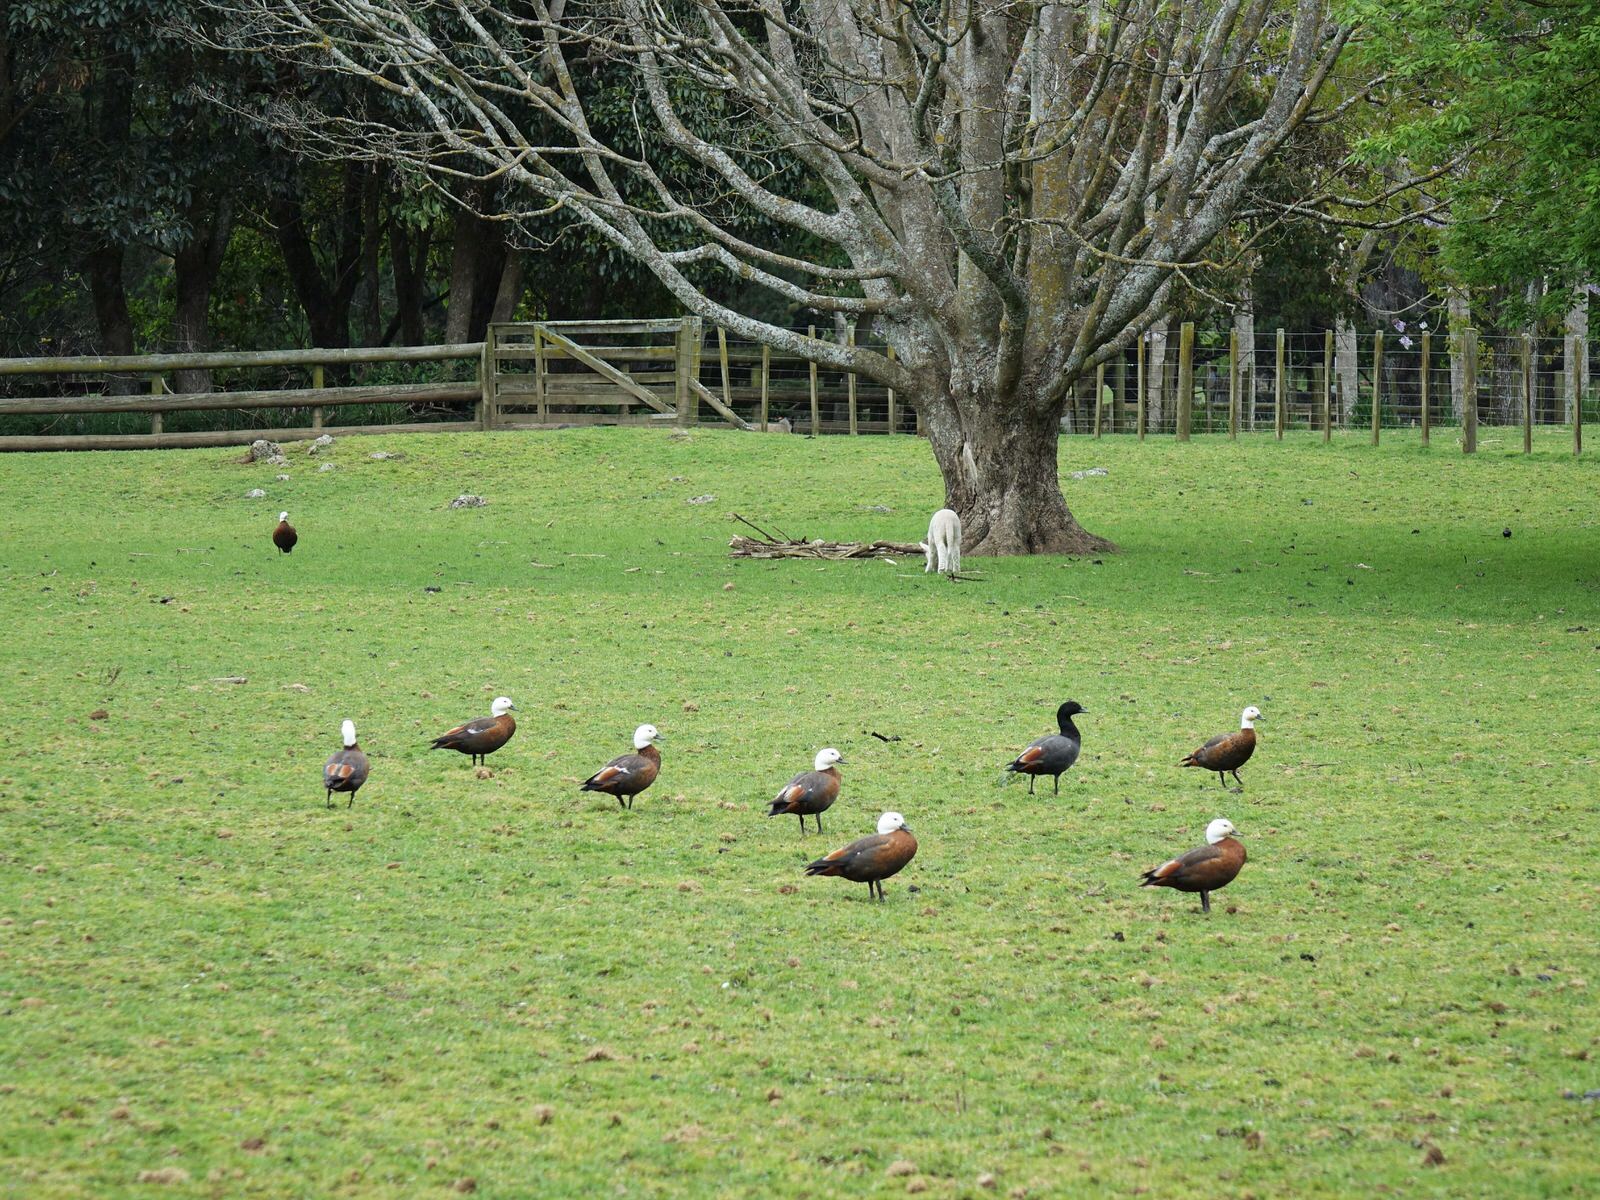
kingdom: Animalia
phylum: Chordata
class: Aves
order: Anseriformes
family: Anatidae
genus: Tadorna
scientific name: Tadorna variegata
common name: Paradise shelduck
